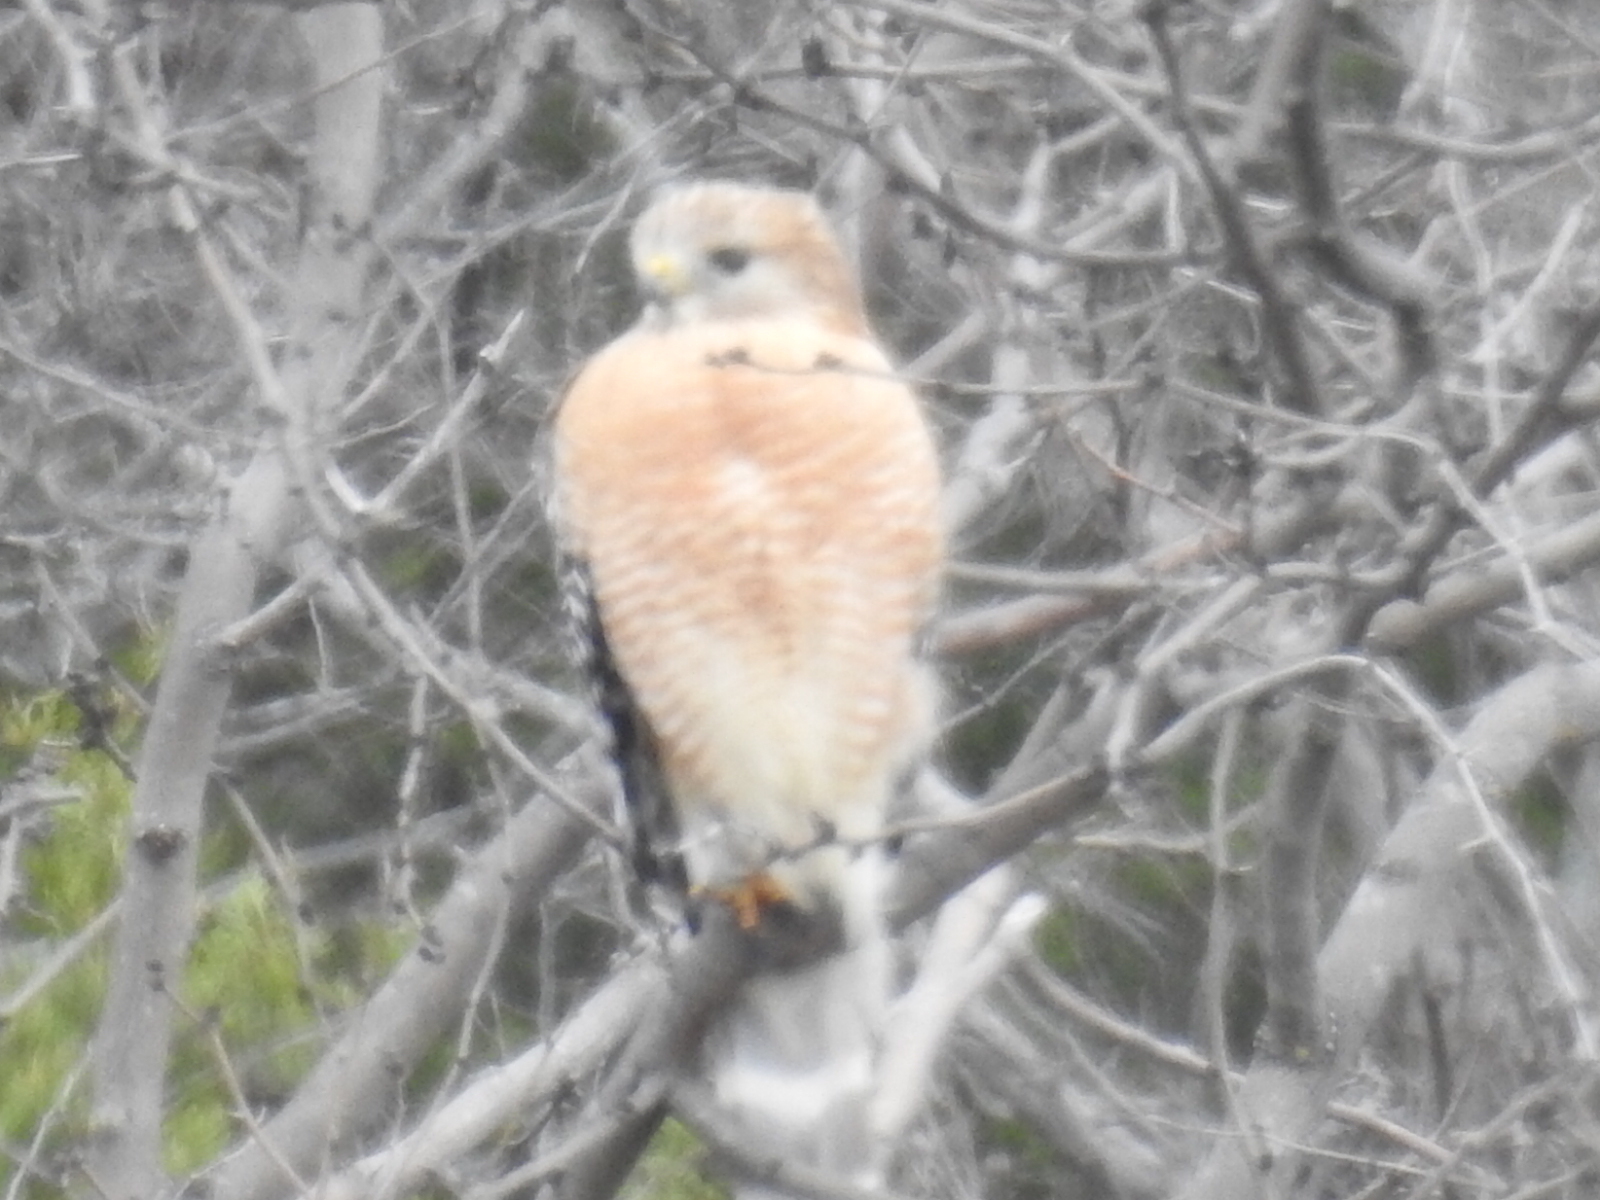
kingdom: Animalia
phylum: Chordata
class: Aves
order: Accipitriformes
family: Accipitridae
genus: Buteo
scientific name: Buteo lineatus
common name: Red-shouldered hawk
